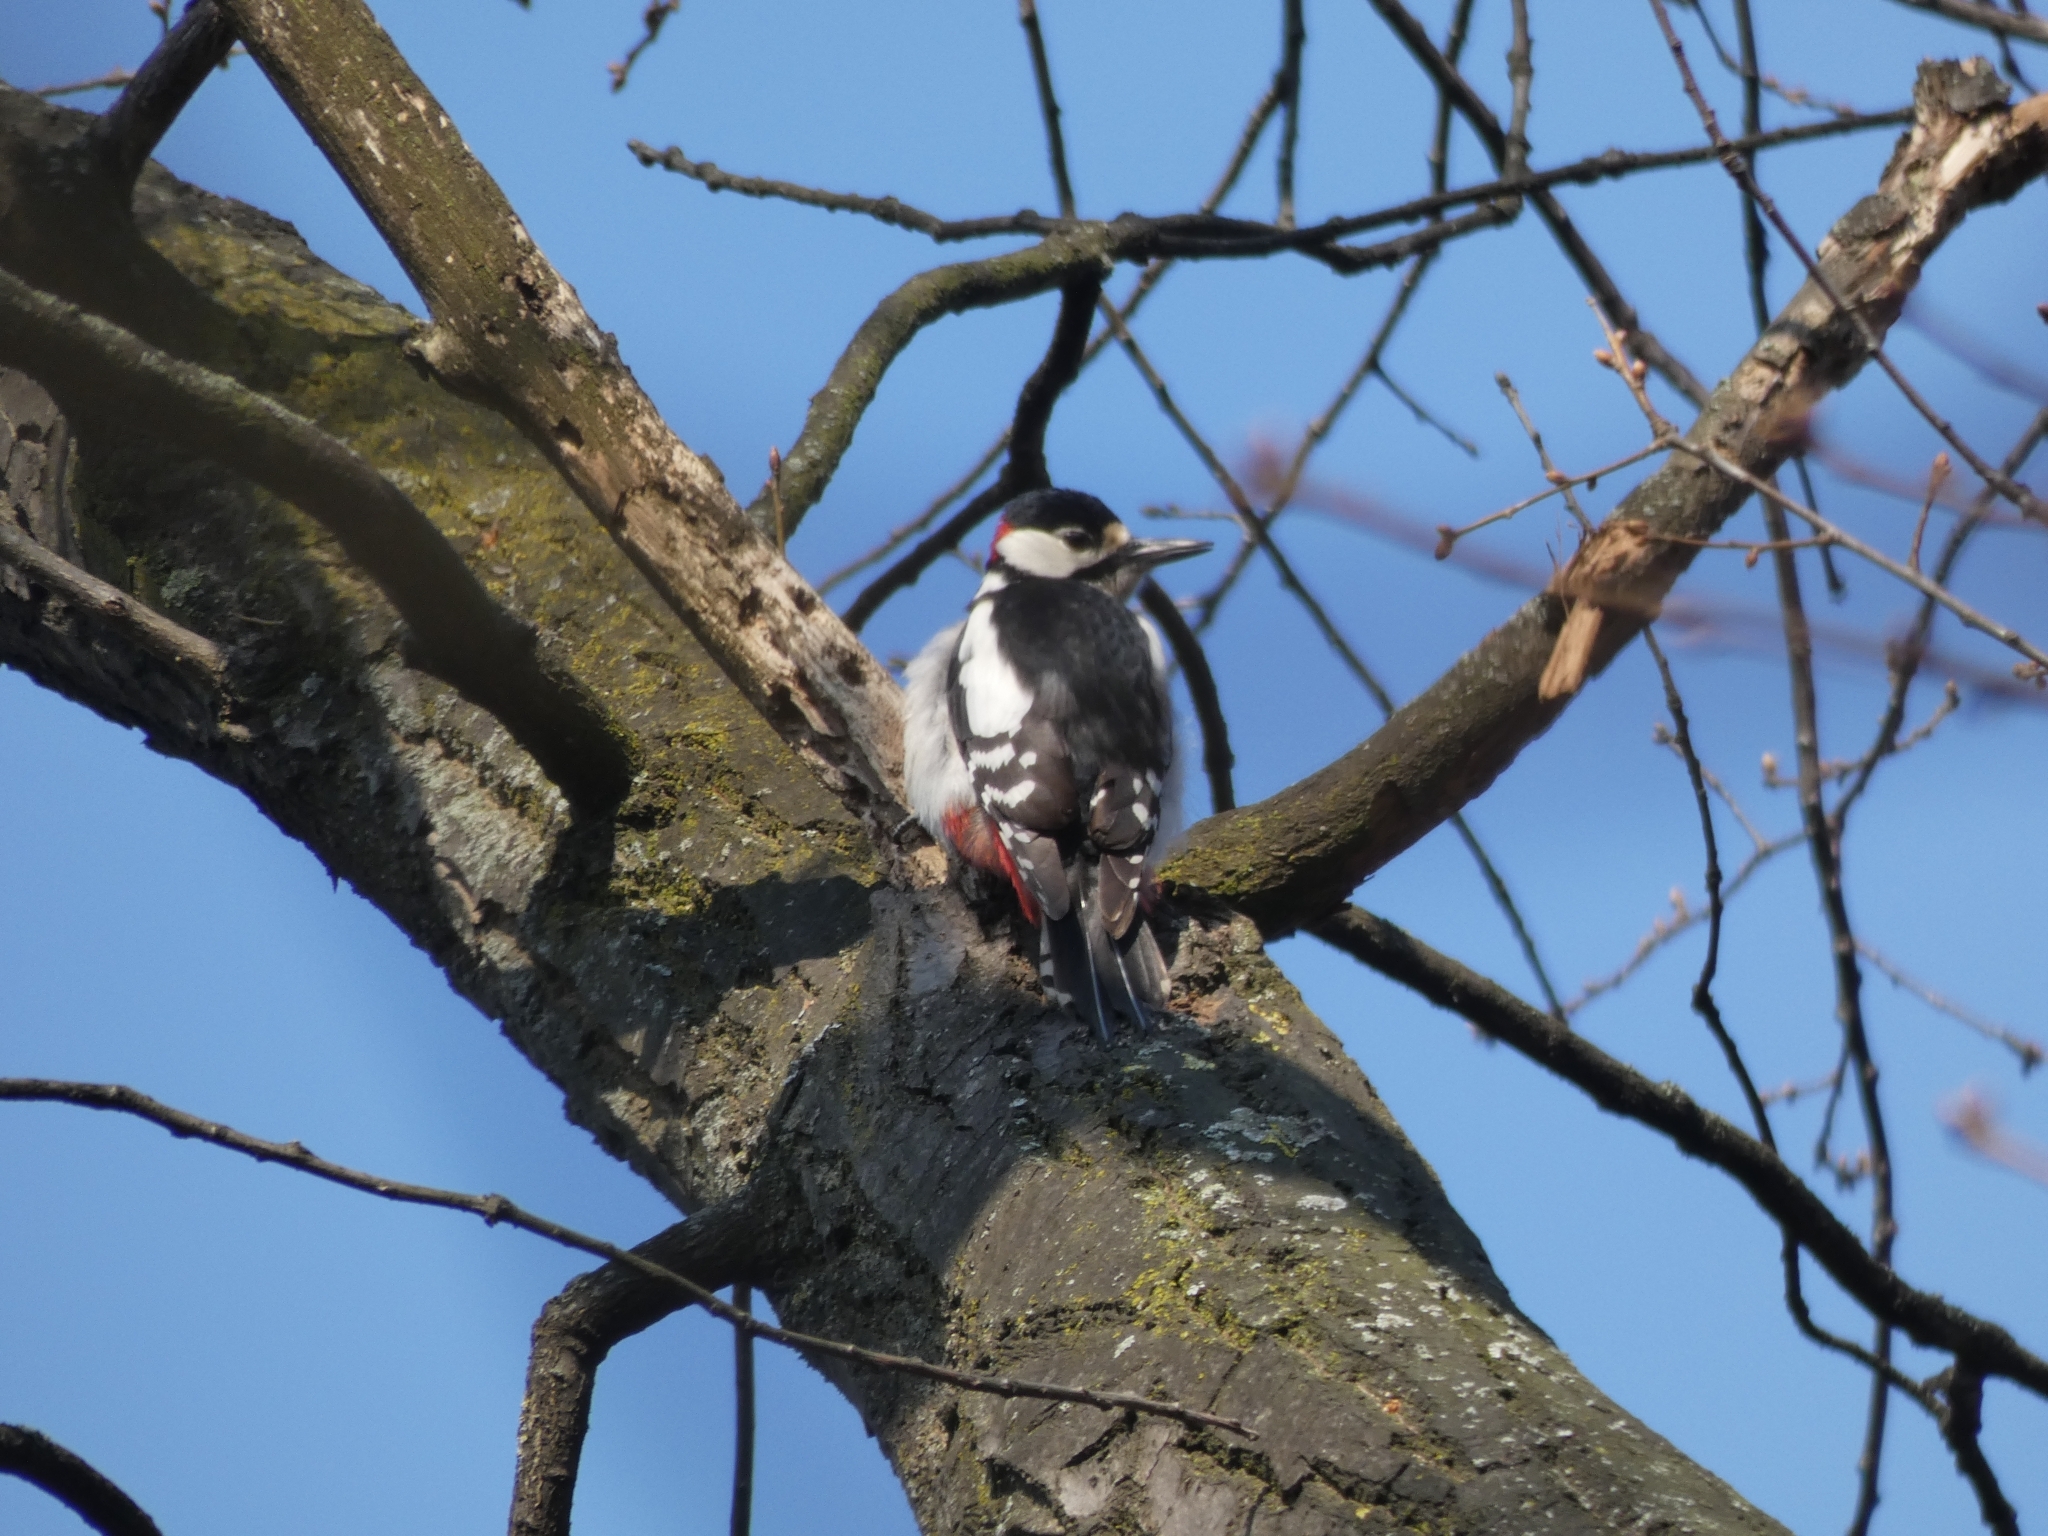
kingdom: Animalia
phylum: Chordata
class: Aves
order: Piciformes
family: Picidae
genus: Dendrocopos
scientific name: Dendrocopos major
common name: Great spotted woodpecker
